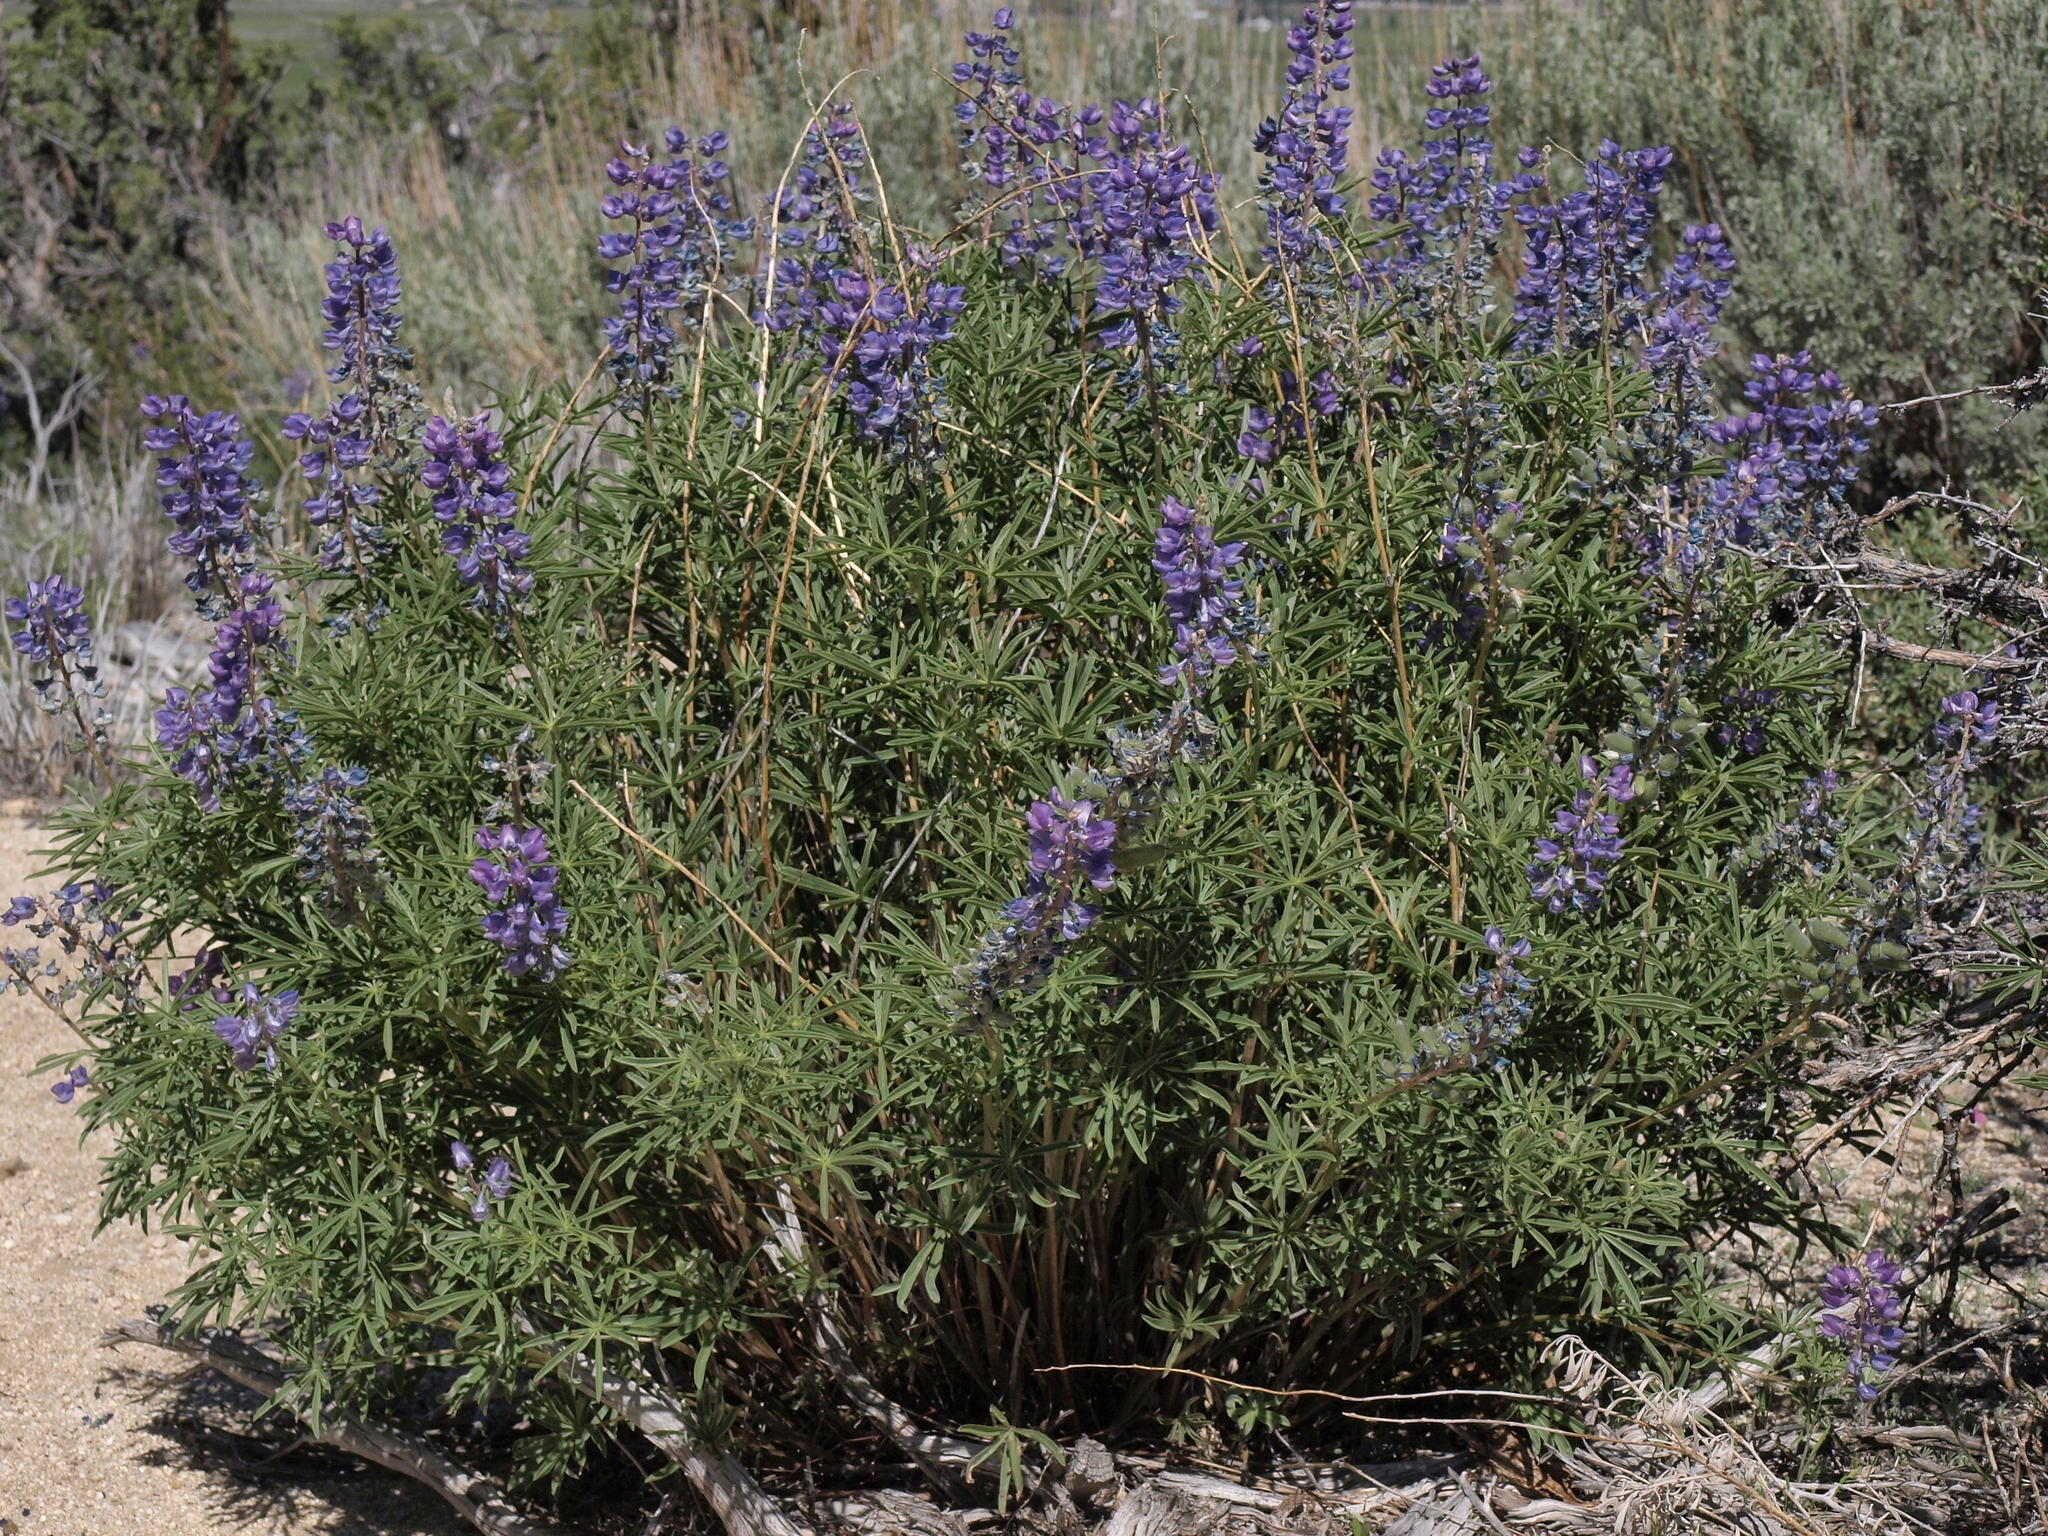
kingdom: Plantae
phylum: Tracheophyta
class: Magnoliopsida
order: Fabales
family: Fabaceae
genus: Lupinus
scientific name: Lupinus caudatus
